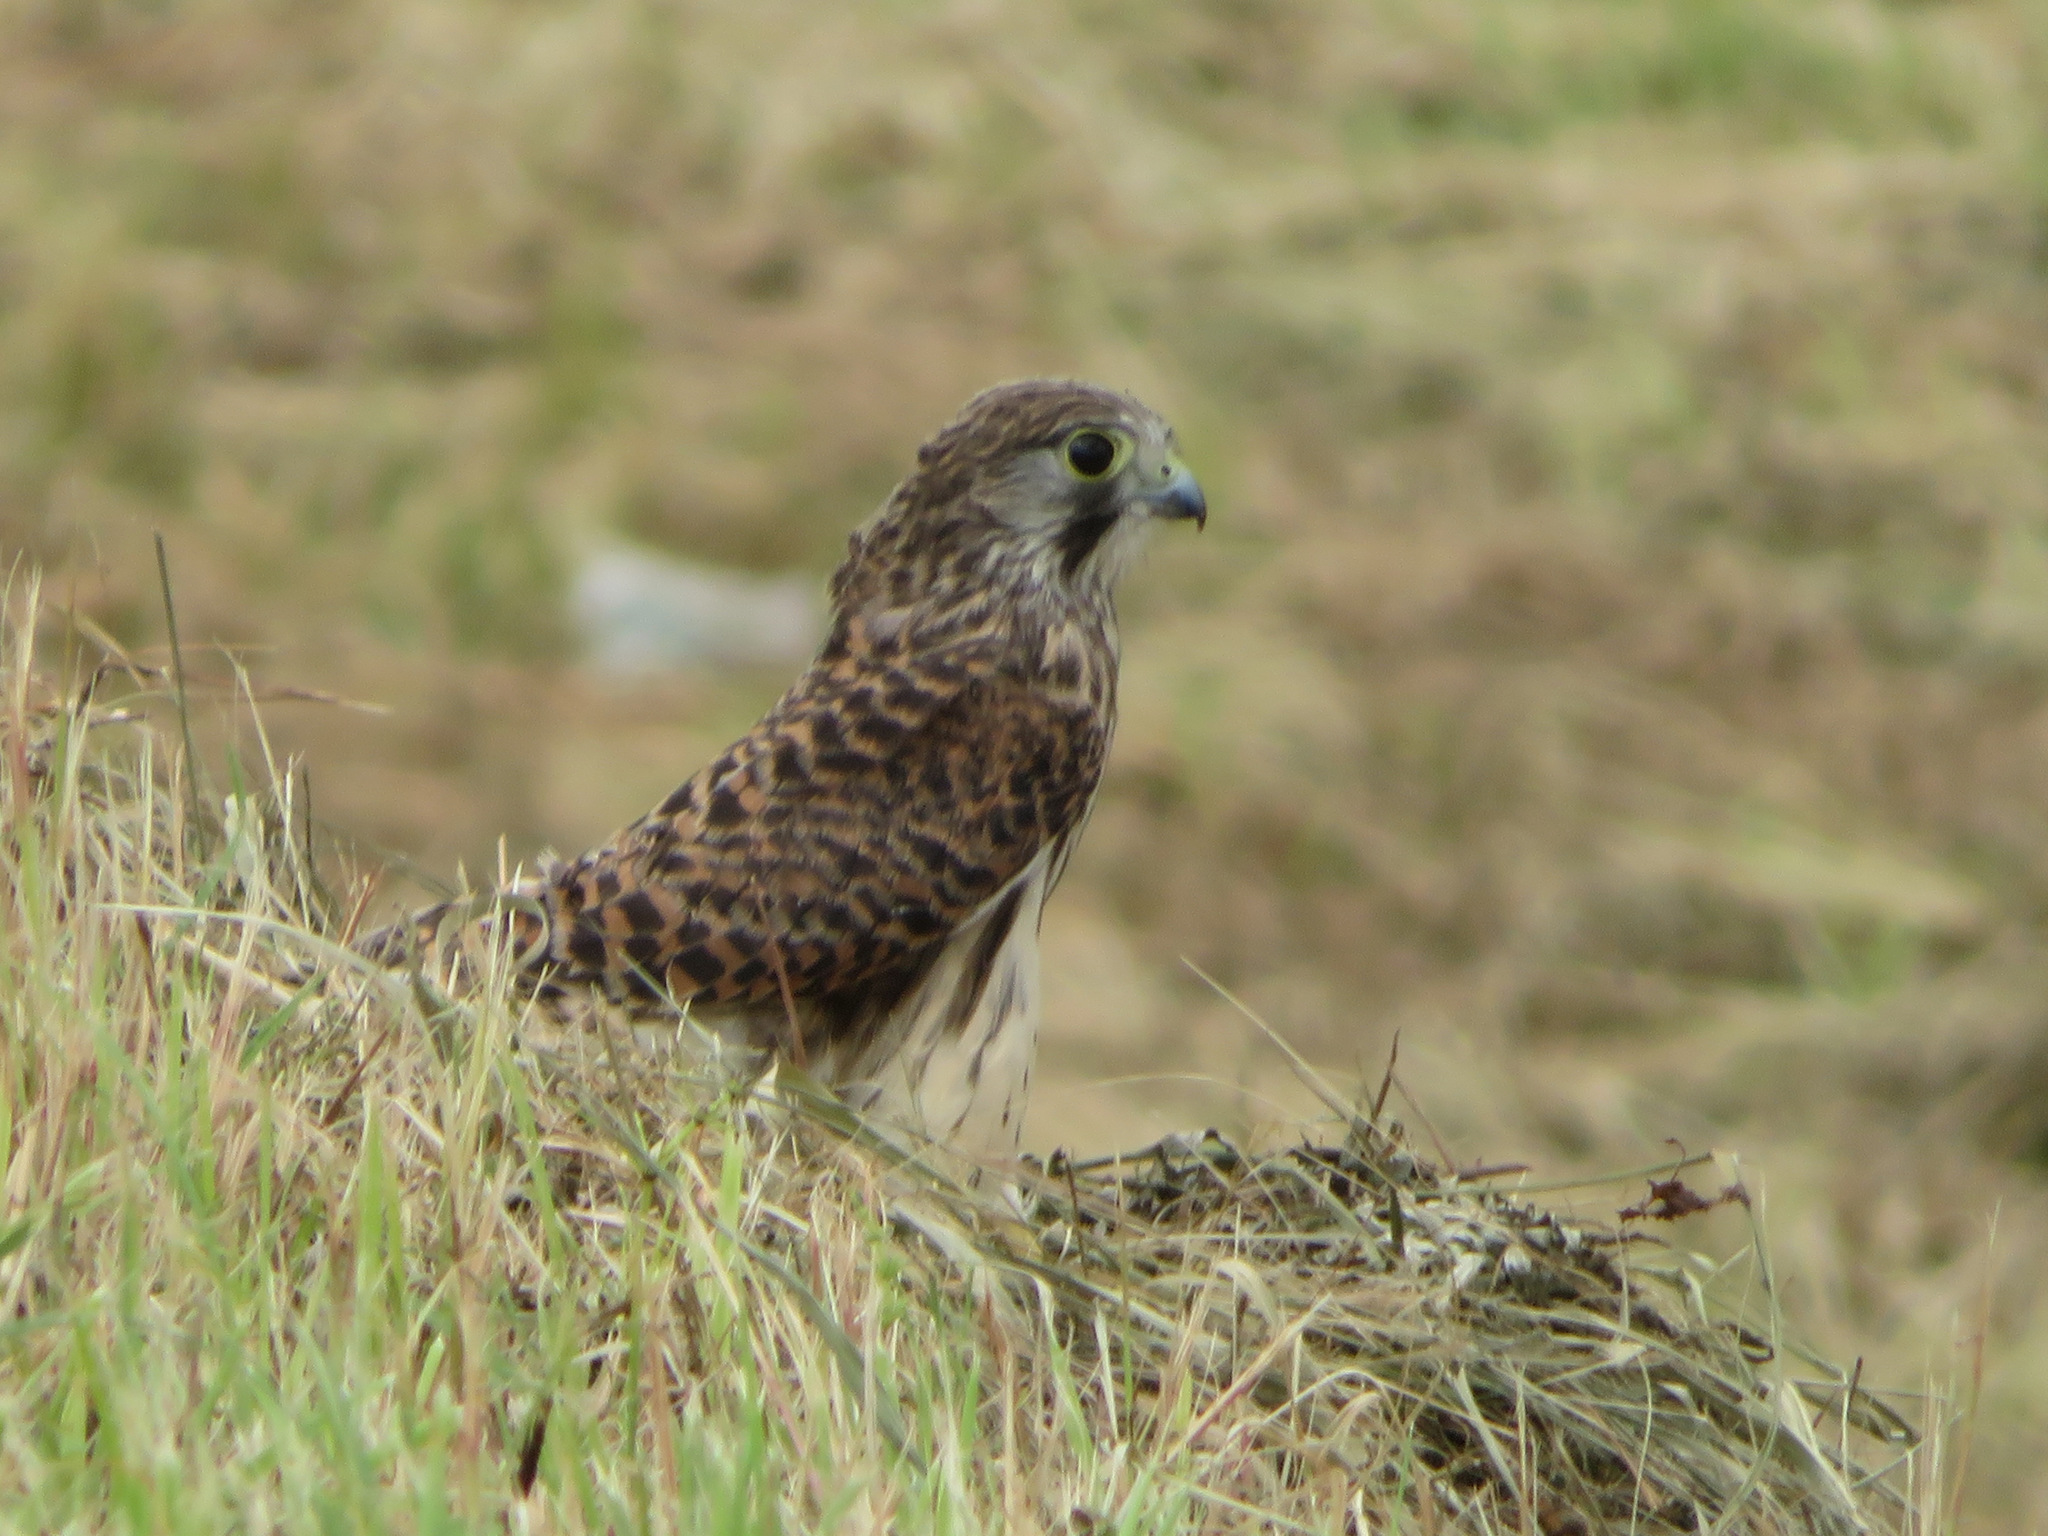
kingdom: Animalia
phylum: Chordata
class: Aves
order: Falconiformes
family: Falconidae
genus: Falco
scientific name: Falco tinnunculus
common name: Common kestrel
